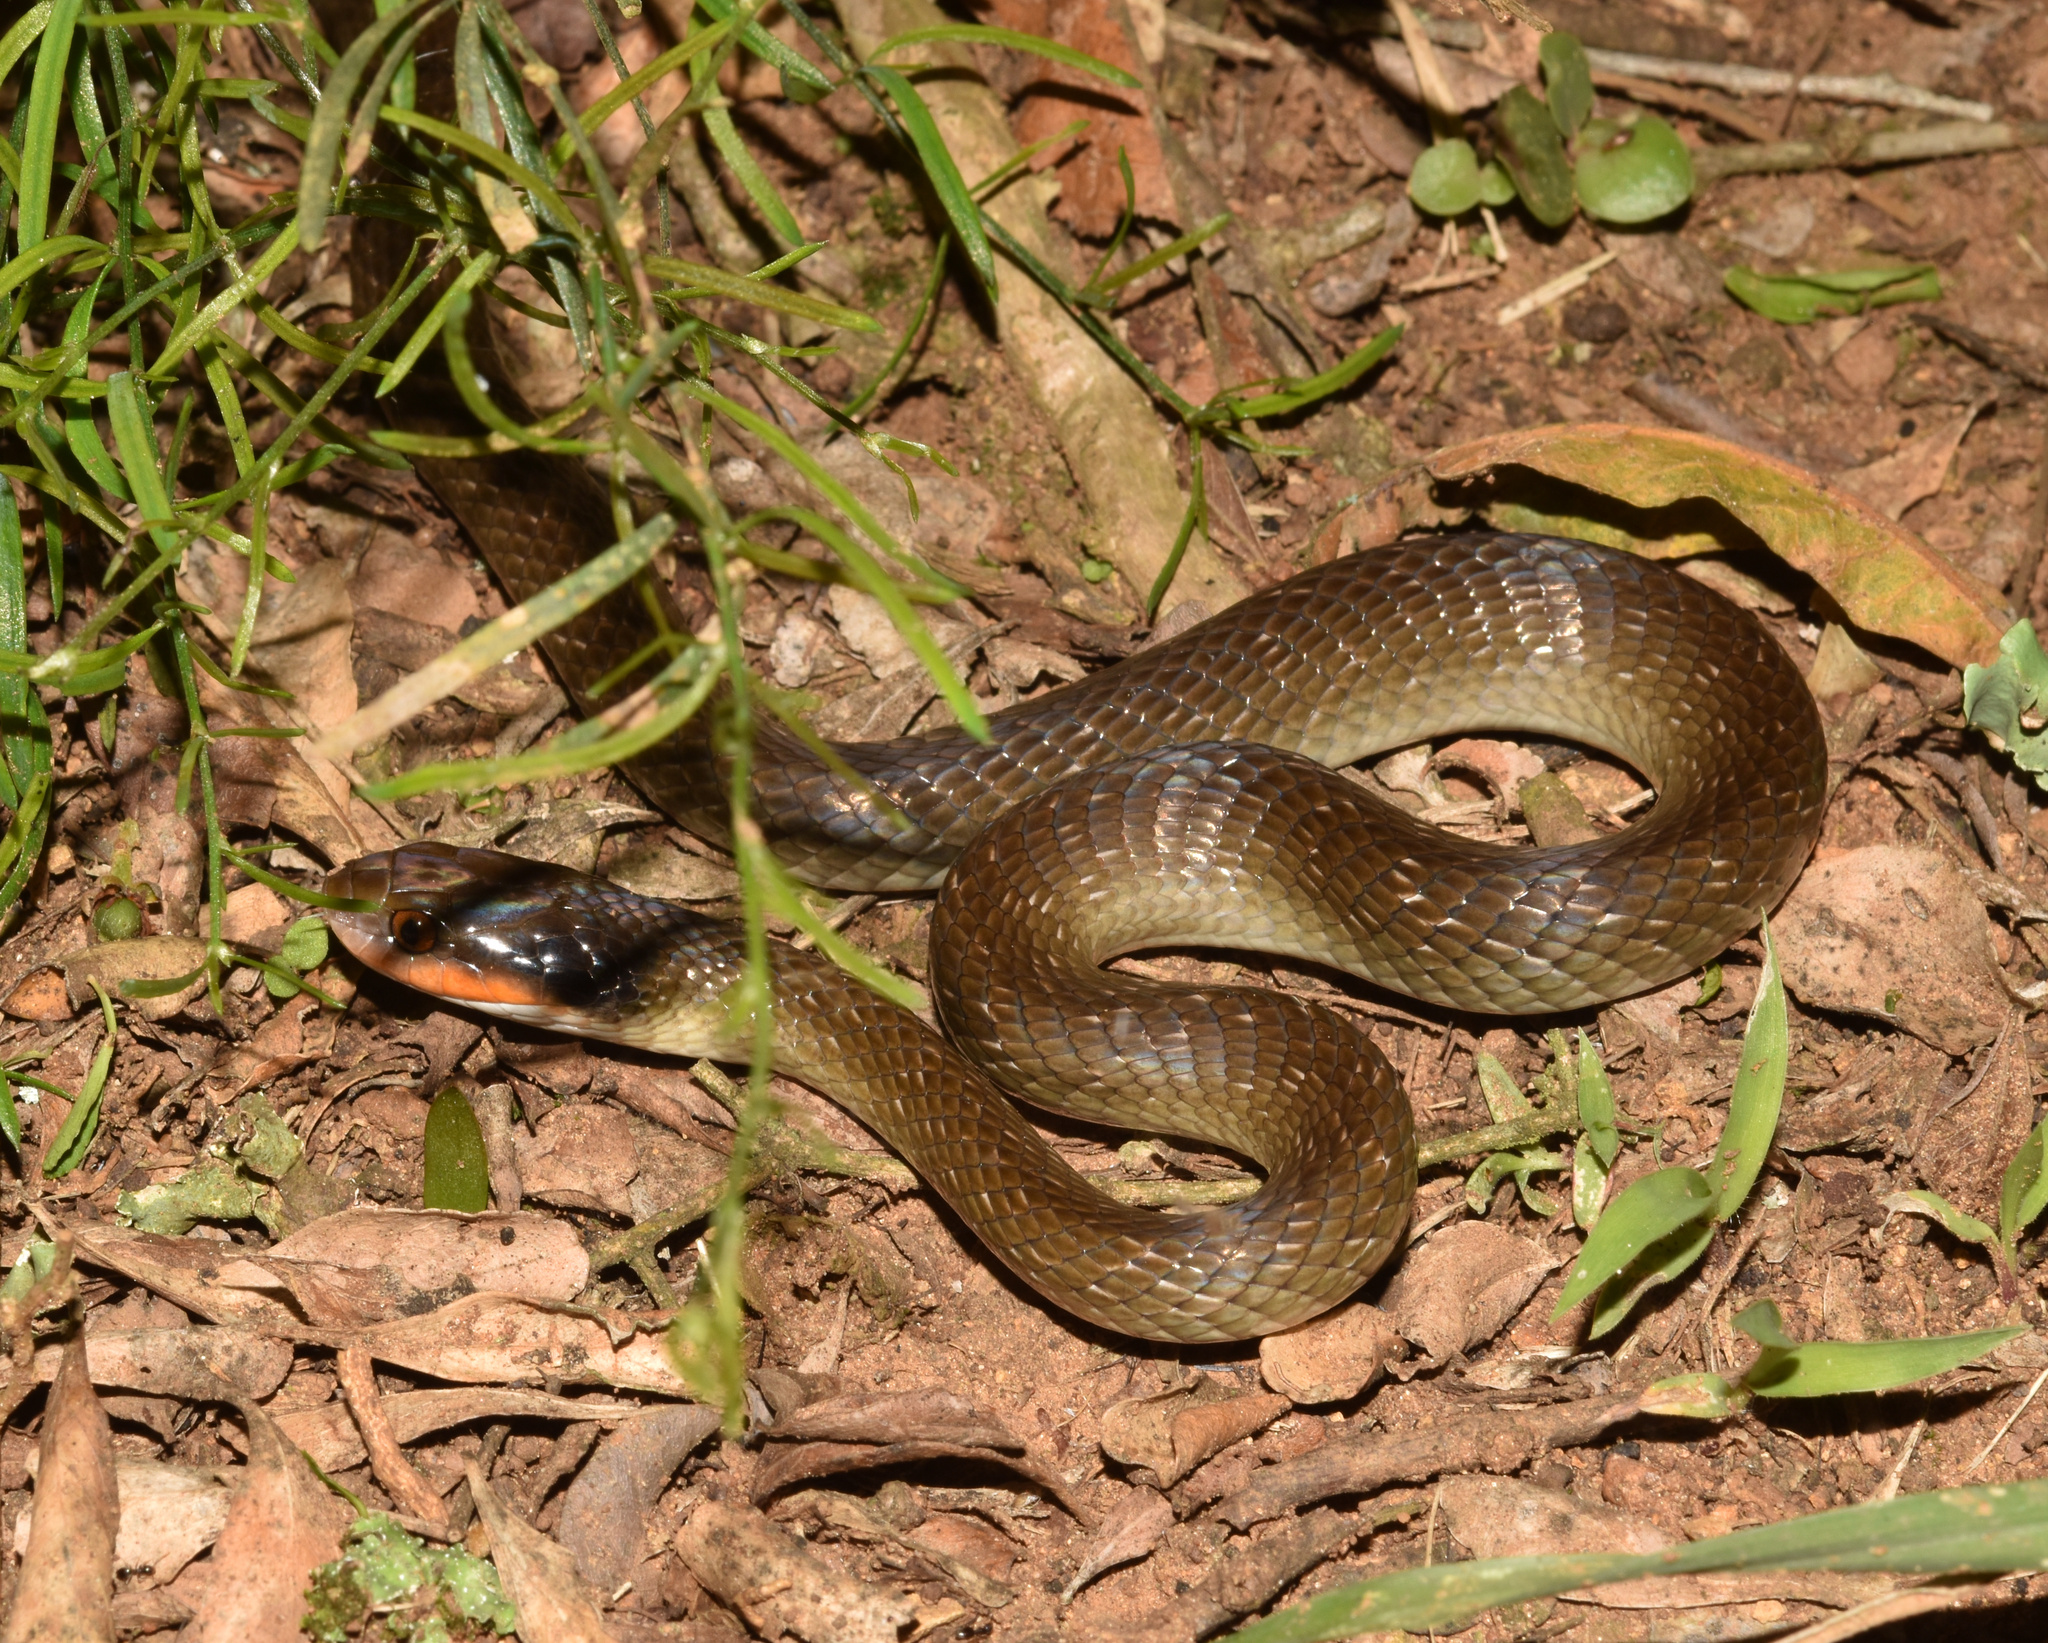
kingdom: Animalia
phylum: Chordata
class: Squamata
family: Colubridae
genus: Crotaphopeltis
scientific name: Crotaphopeltis hotamboeia
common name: Red-lipped snake
